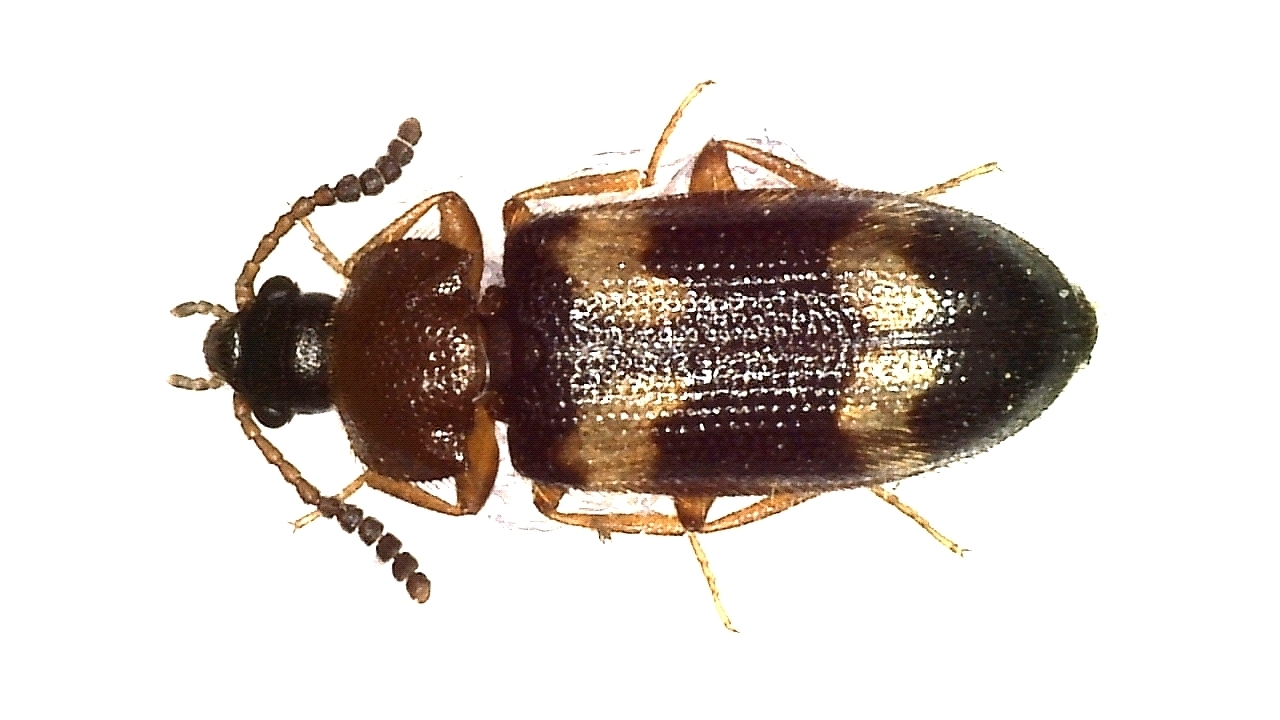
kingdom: Animalia
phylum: Arthropoda
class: Insecta
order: Coleoptera
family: Mycetophagidae
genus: Mycetophagus
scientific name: Mycetophagus fulvicollis
